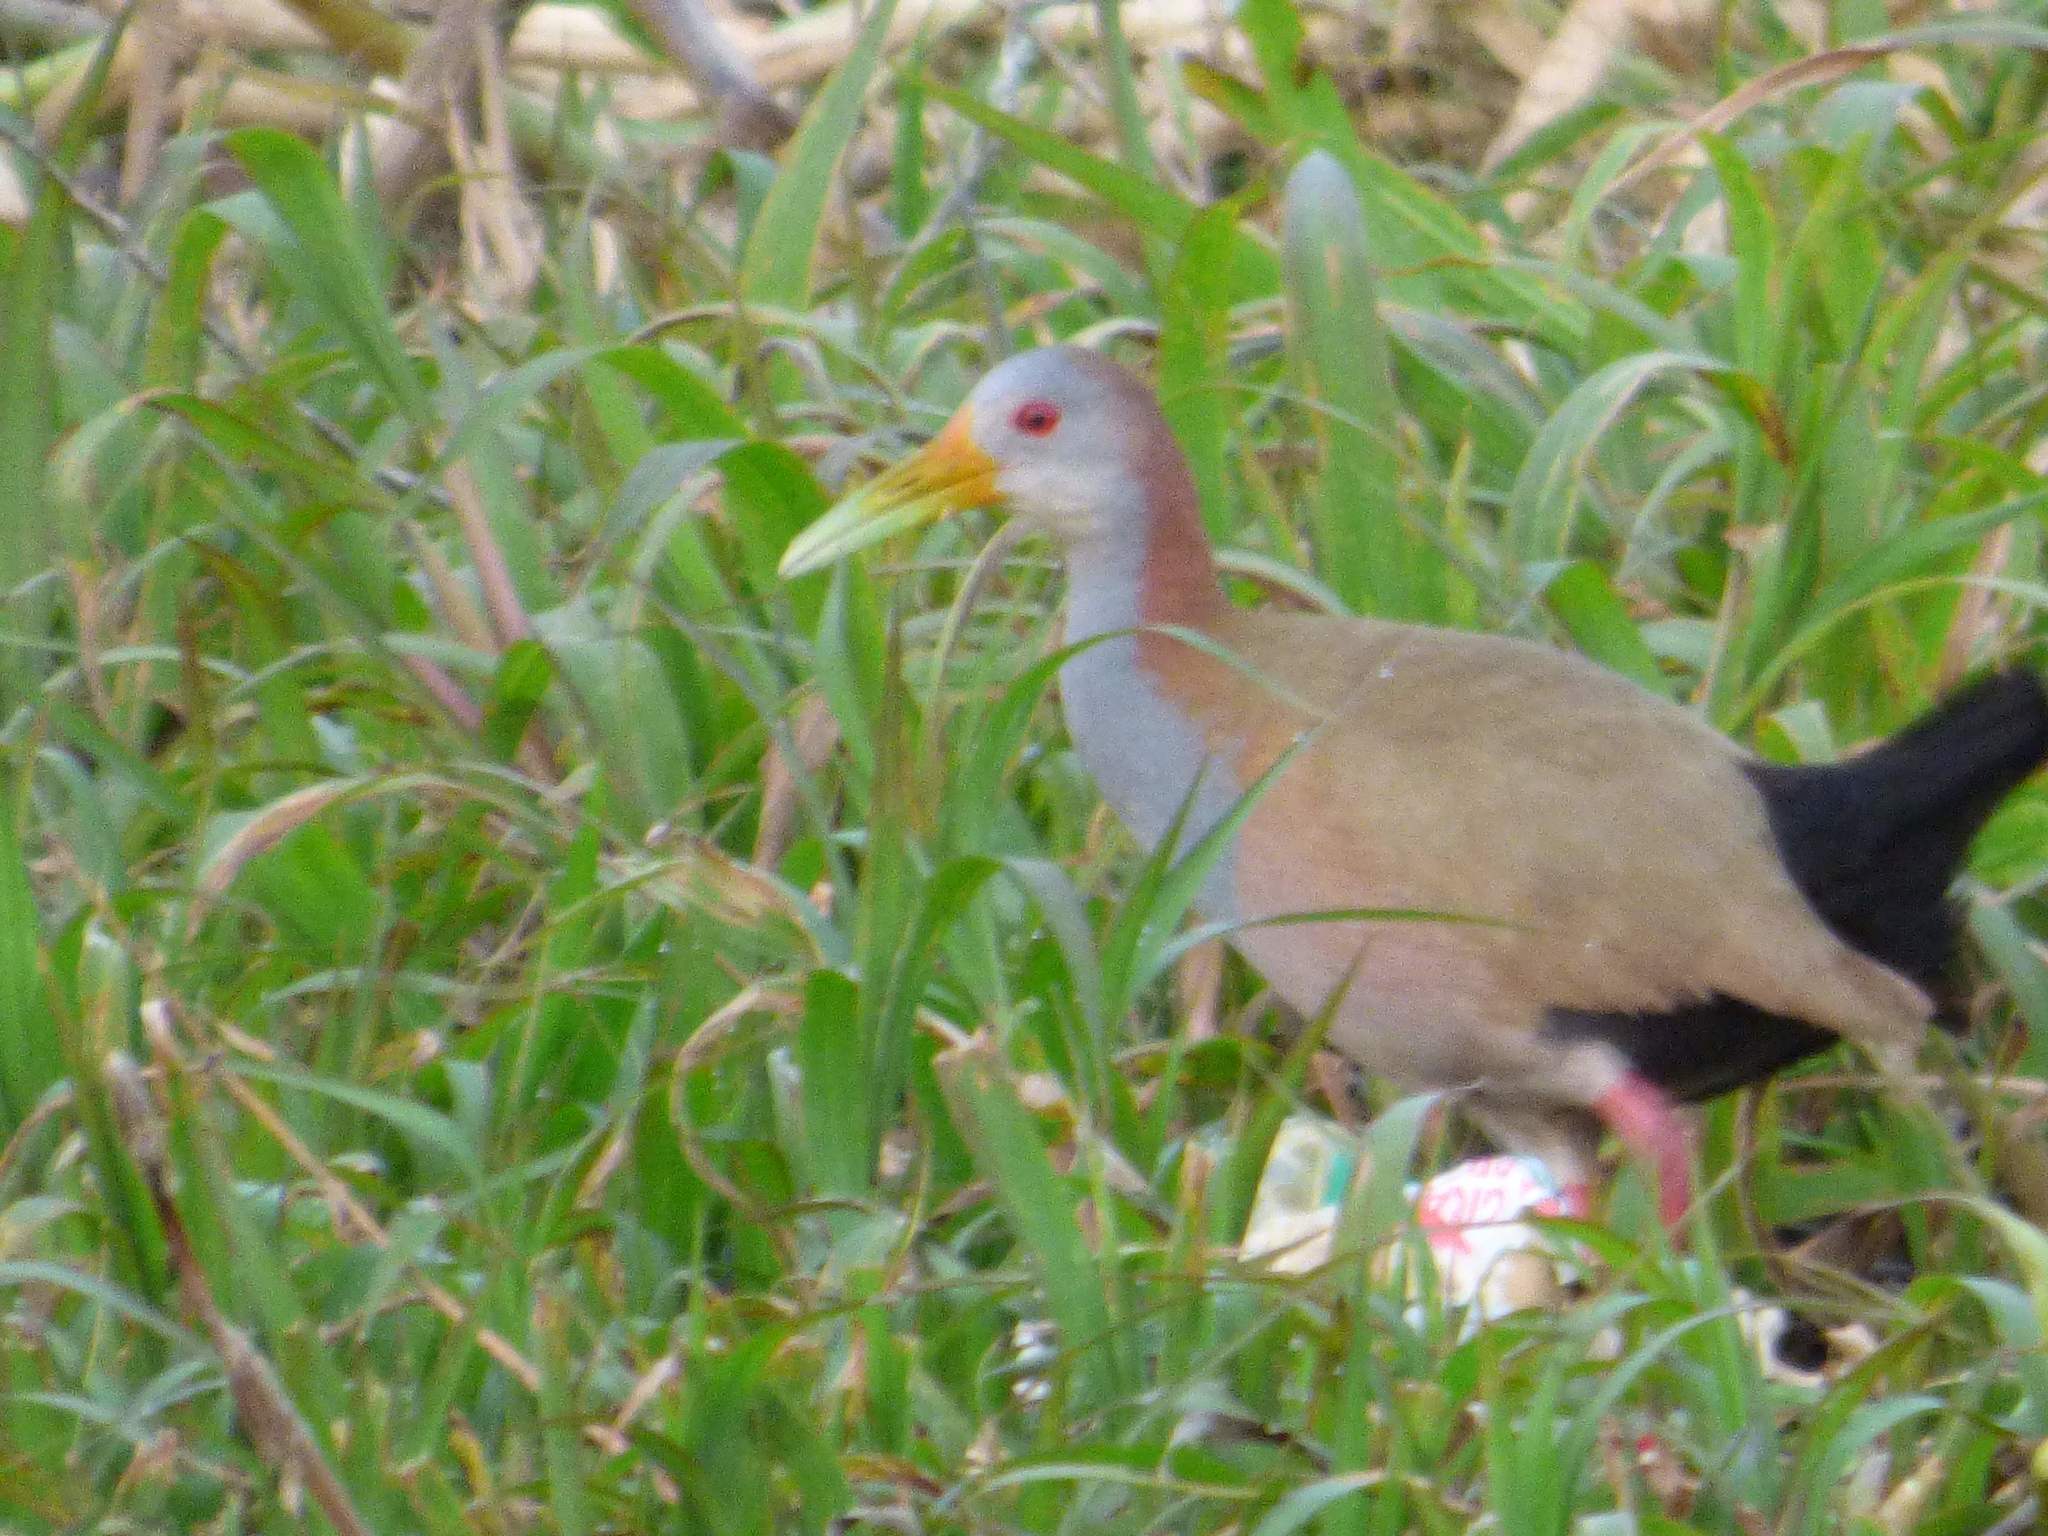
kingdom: Animalia
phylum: Chordata
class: Aves
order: Gruiformes
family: Rallidae
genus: Aramides
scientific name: Aramides ypecaha
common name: Giant wood rail
